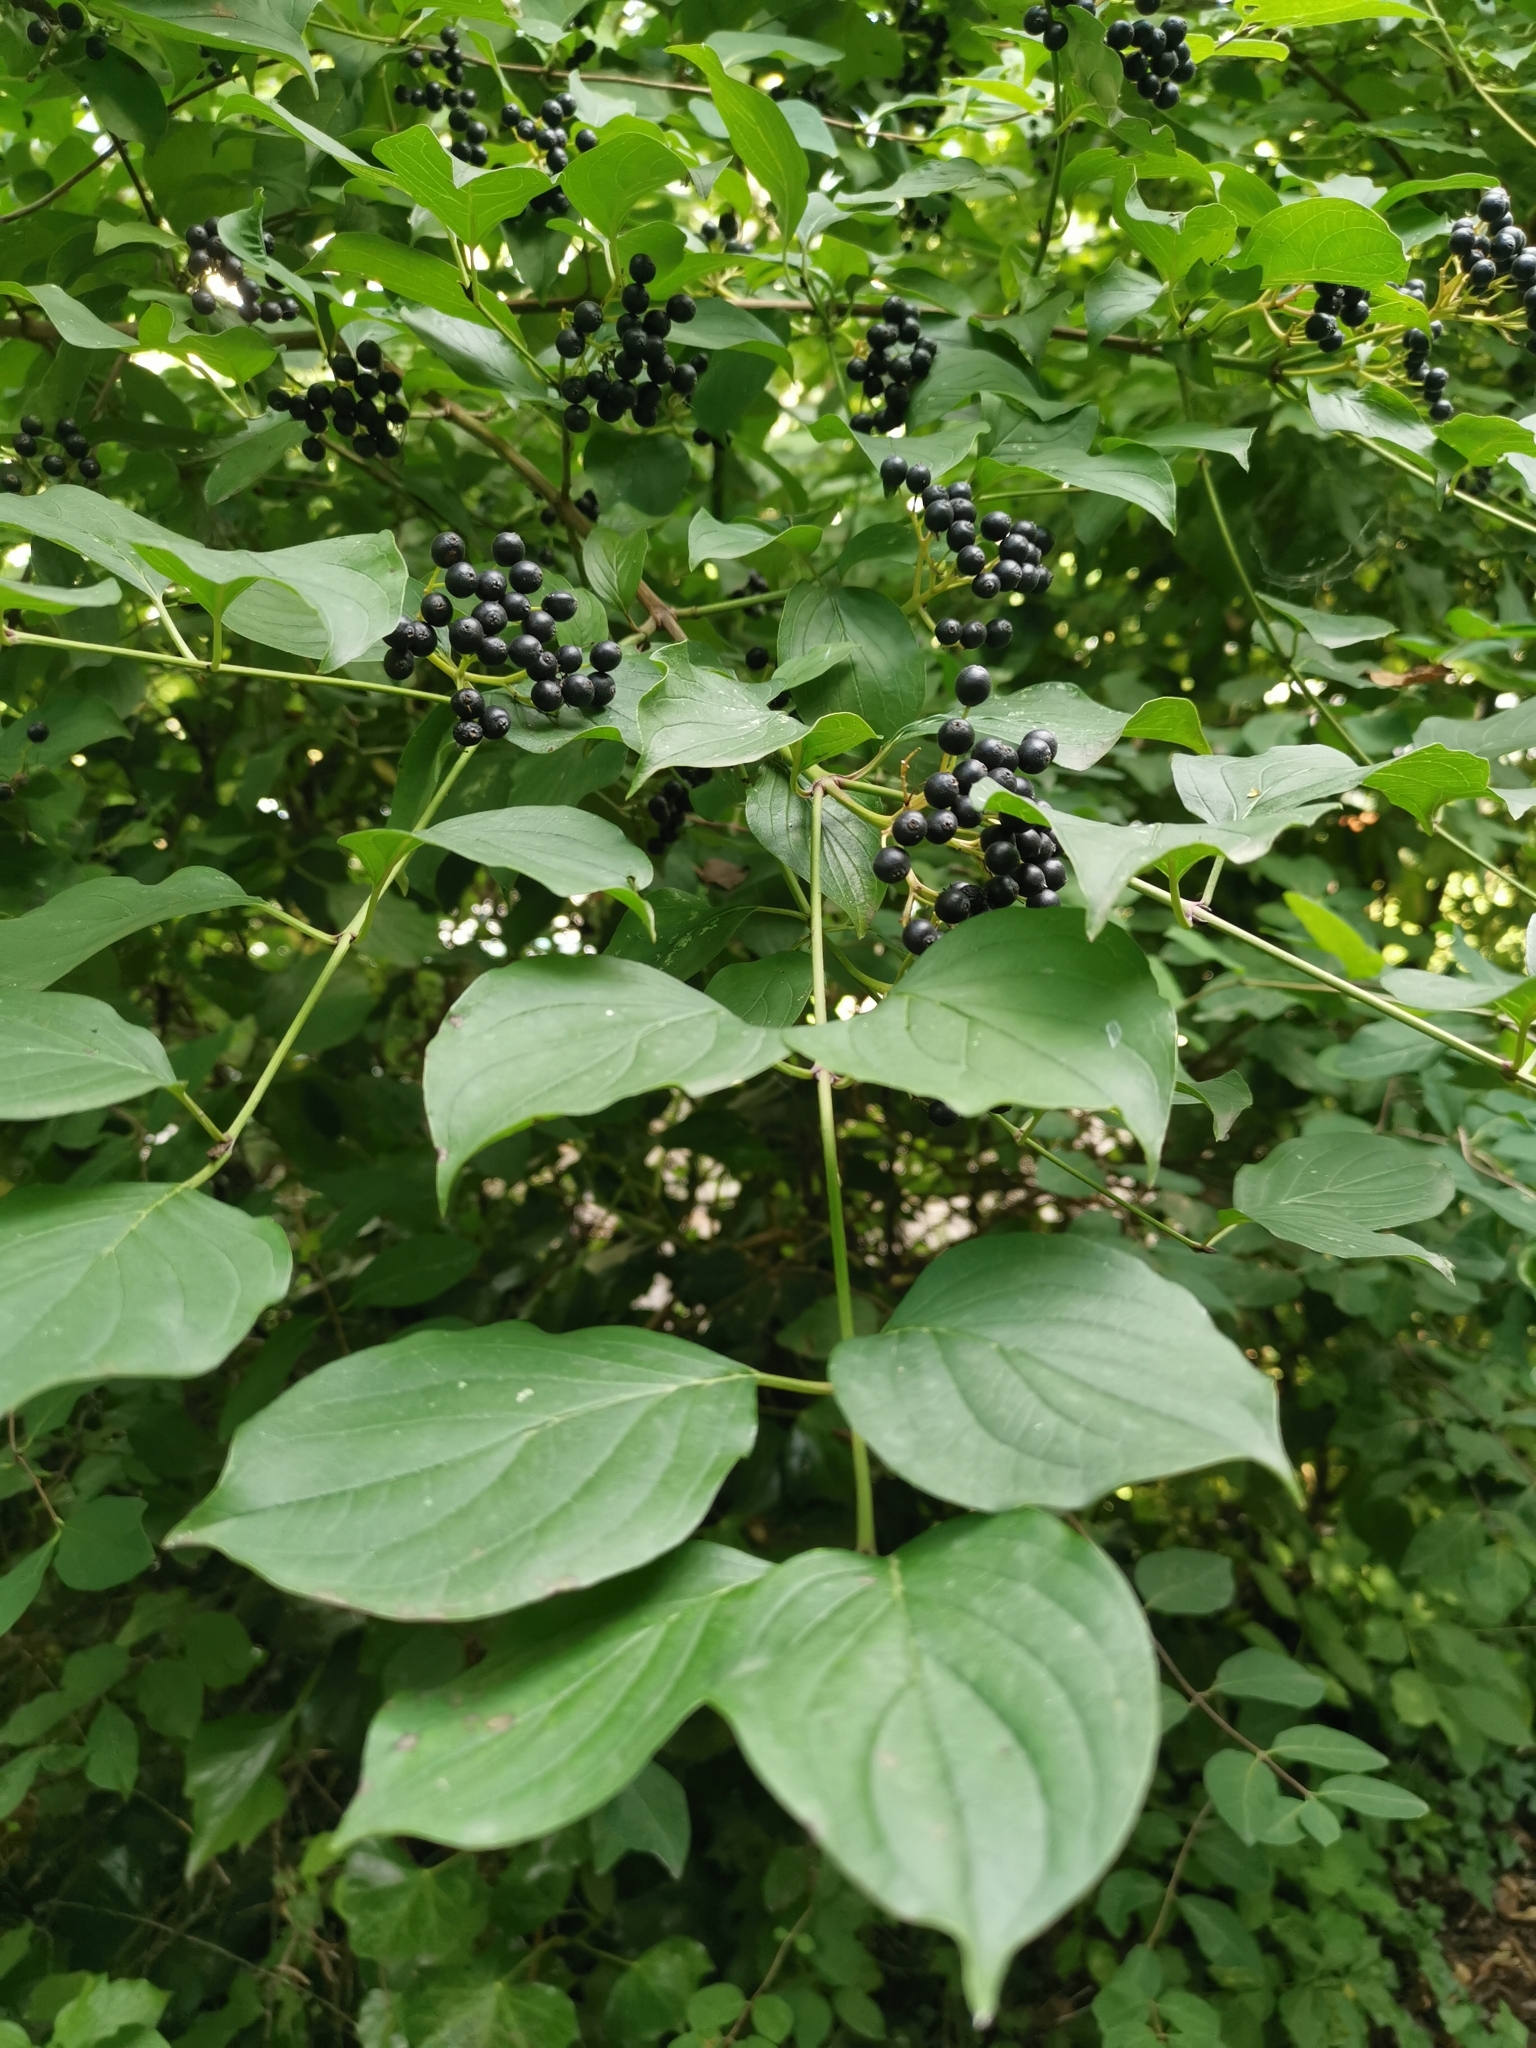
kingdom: Plantae
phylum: Tracheophyta
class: Magnoliopsida
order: Cornales
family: Cornaceae
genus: Cornus
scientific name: Cornus sanguinea
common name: Dogwood
